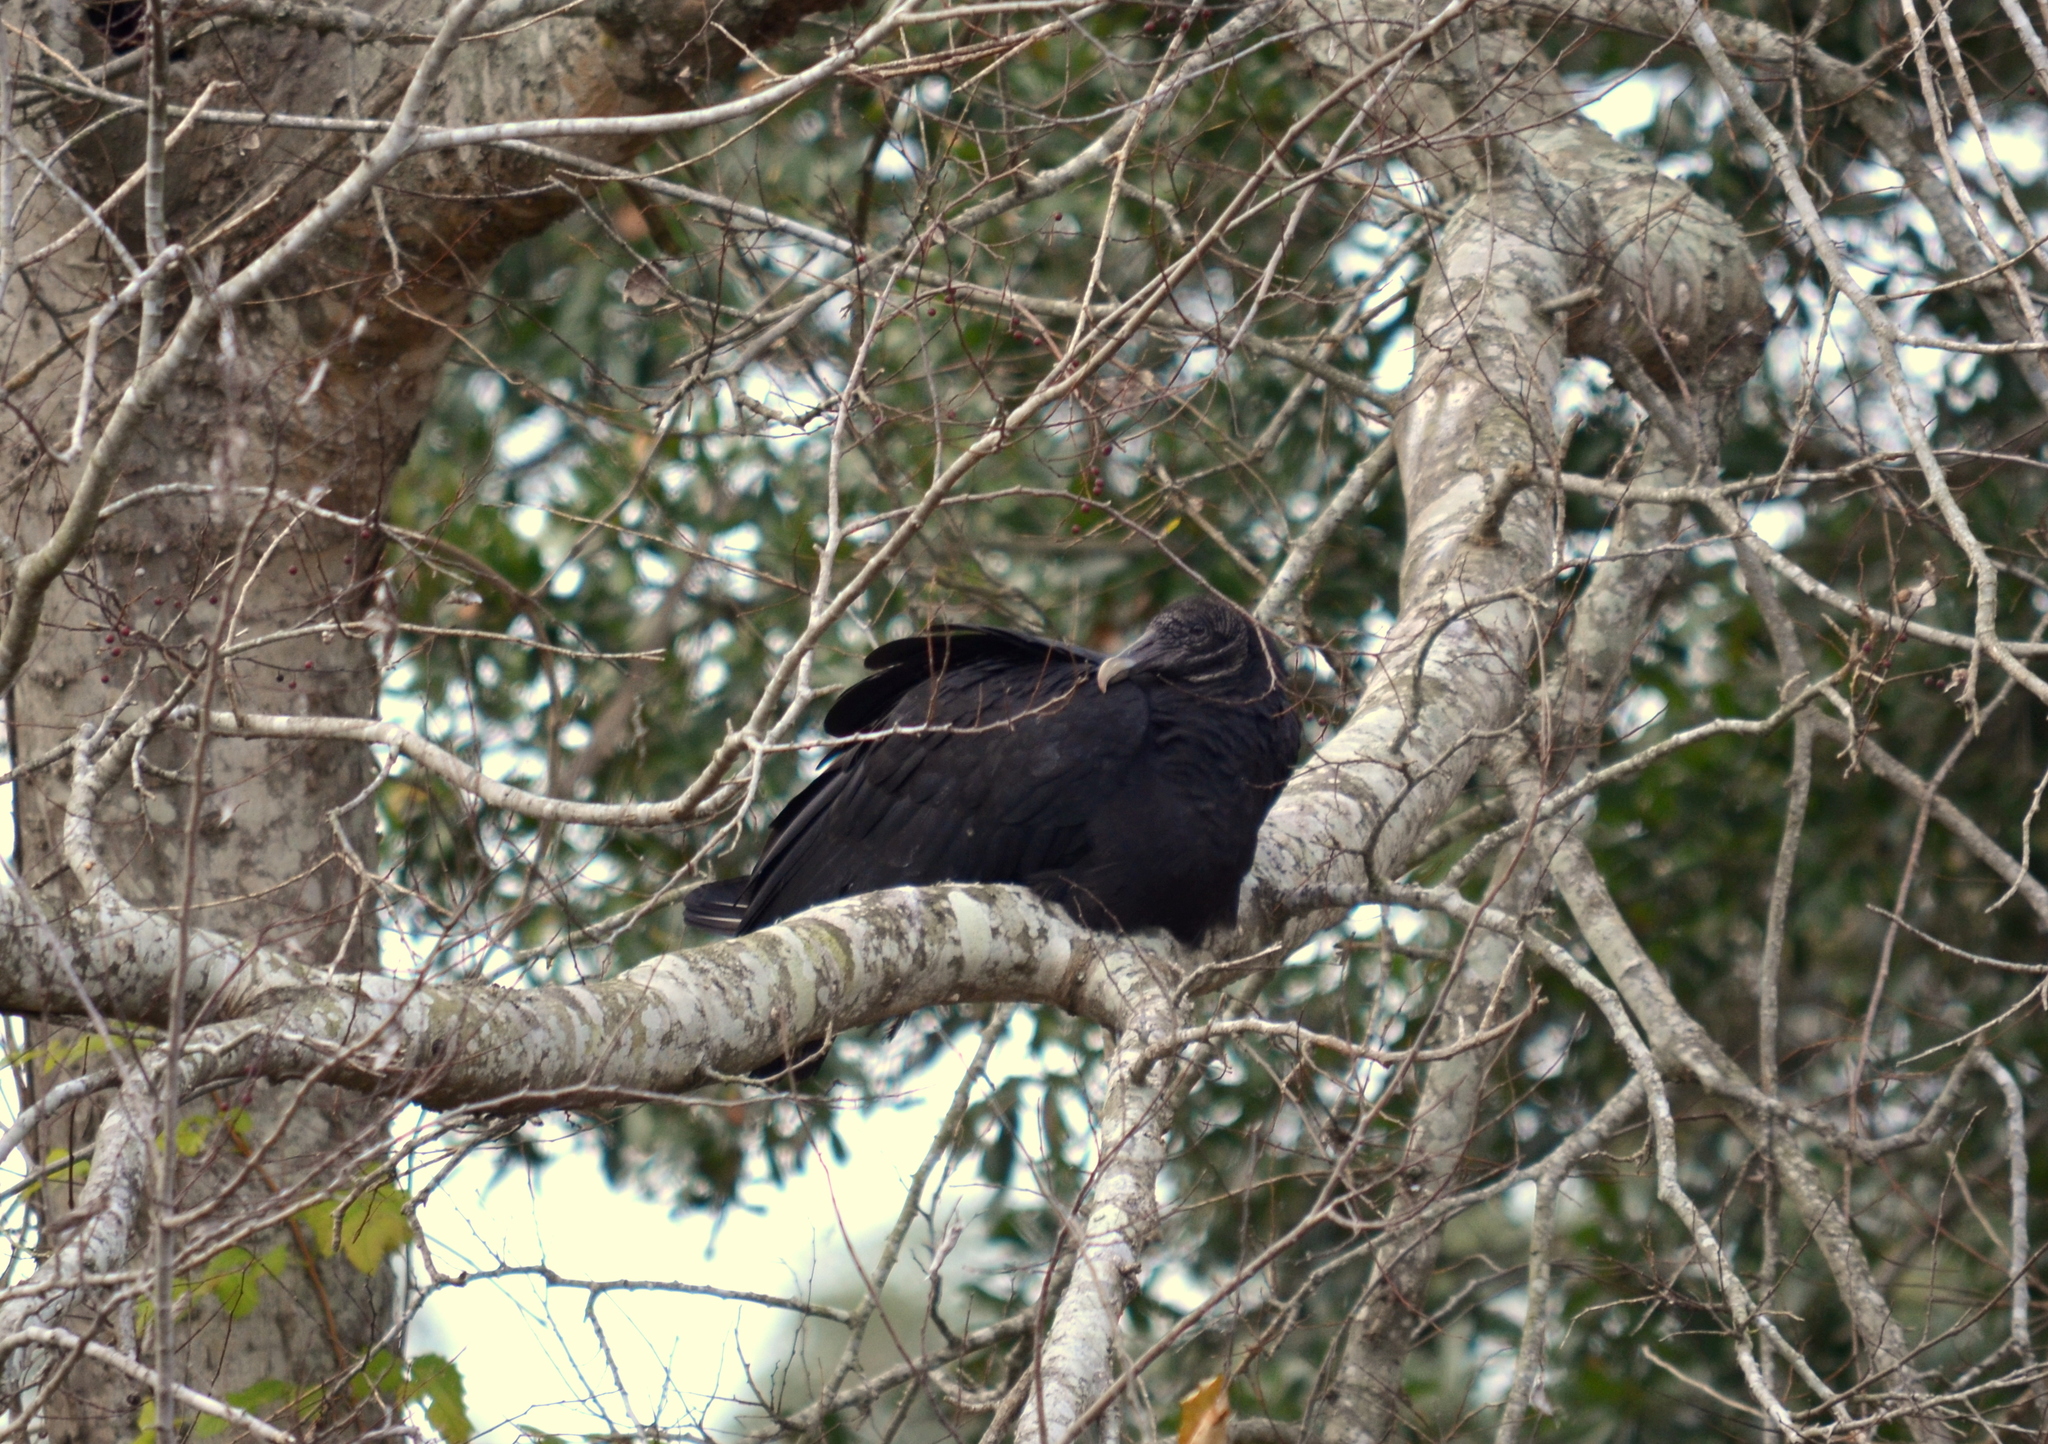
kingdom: Animalia
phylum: Chordata
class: Aves
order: Accipitriformes
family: Cathartidae
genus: Coragyps
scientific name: Coragyps atratus
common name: Black vulture
